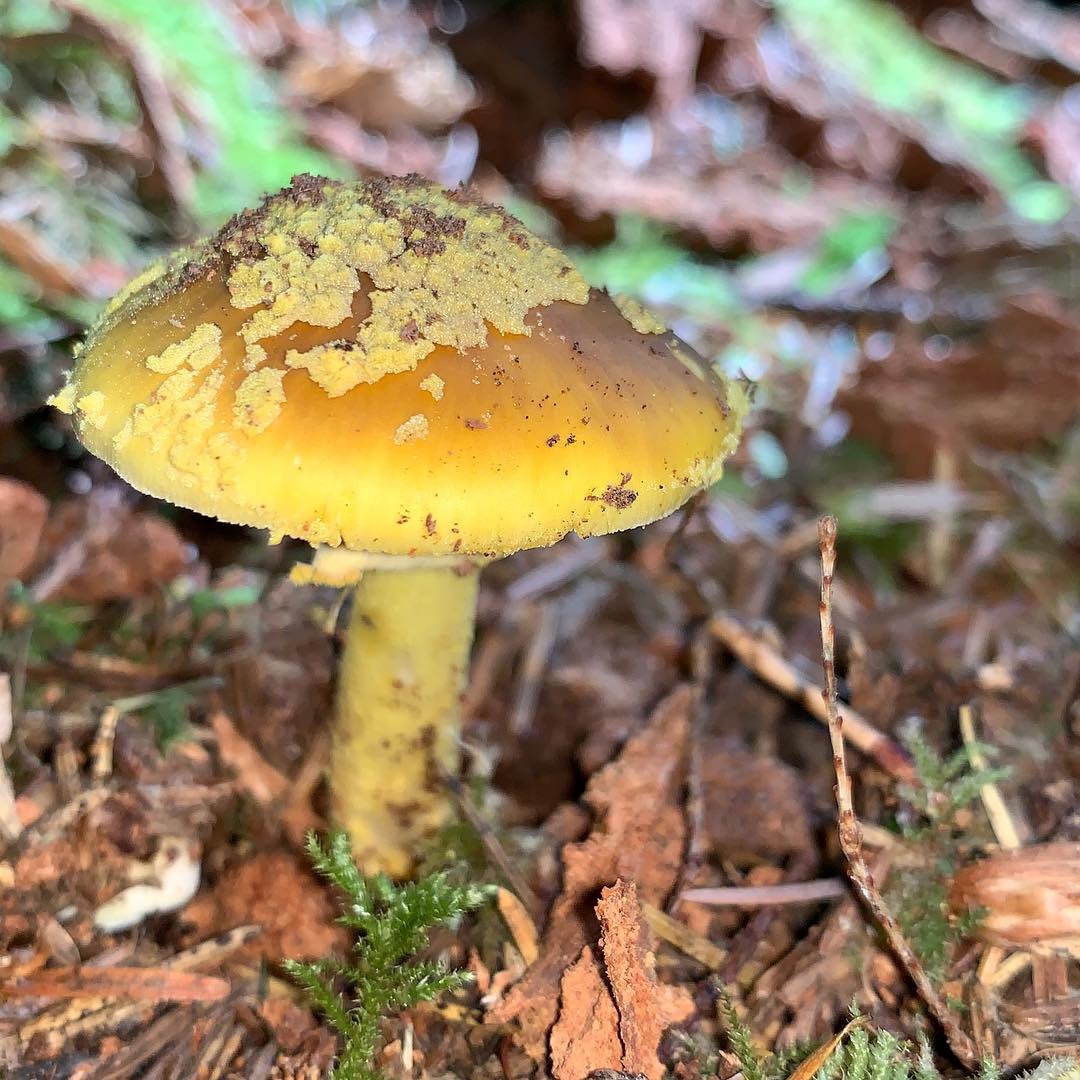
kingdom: Fungi
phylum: Basidiomycota
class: Agaricomycetes
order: Agaricales
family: Amanitaceae
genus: Amanita
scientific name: Amanita augusta
